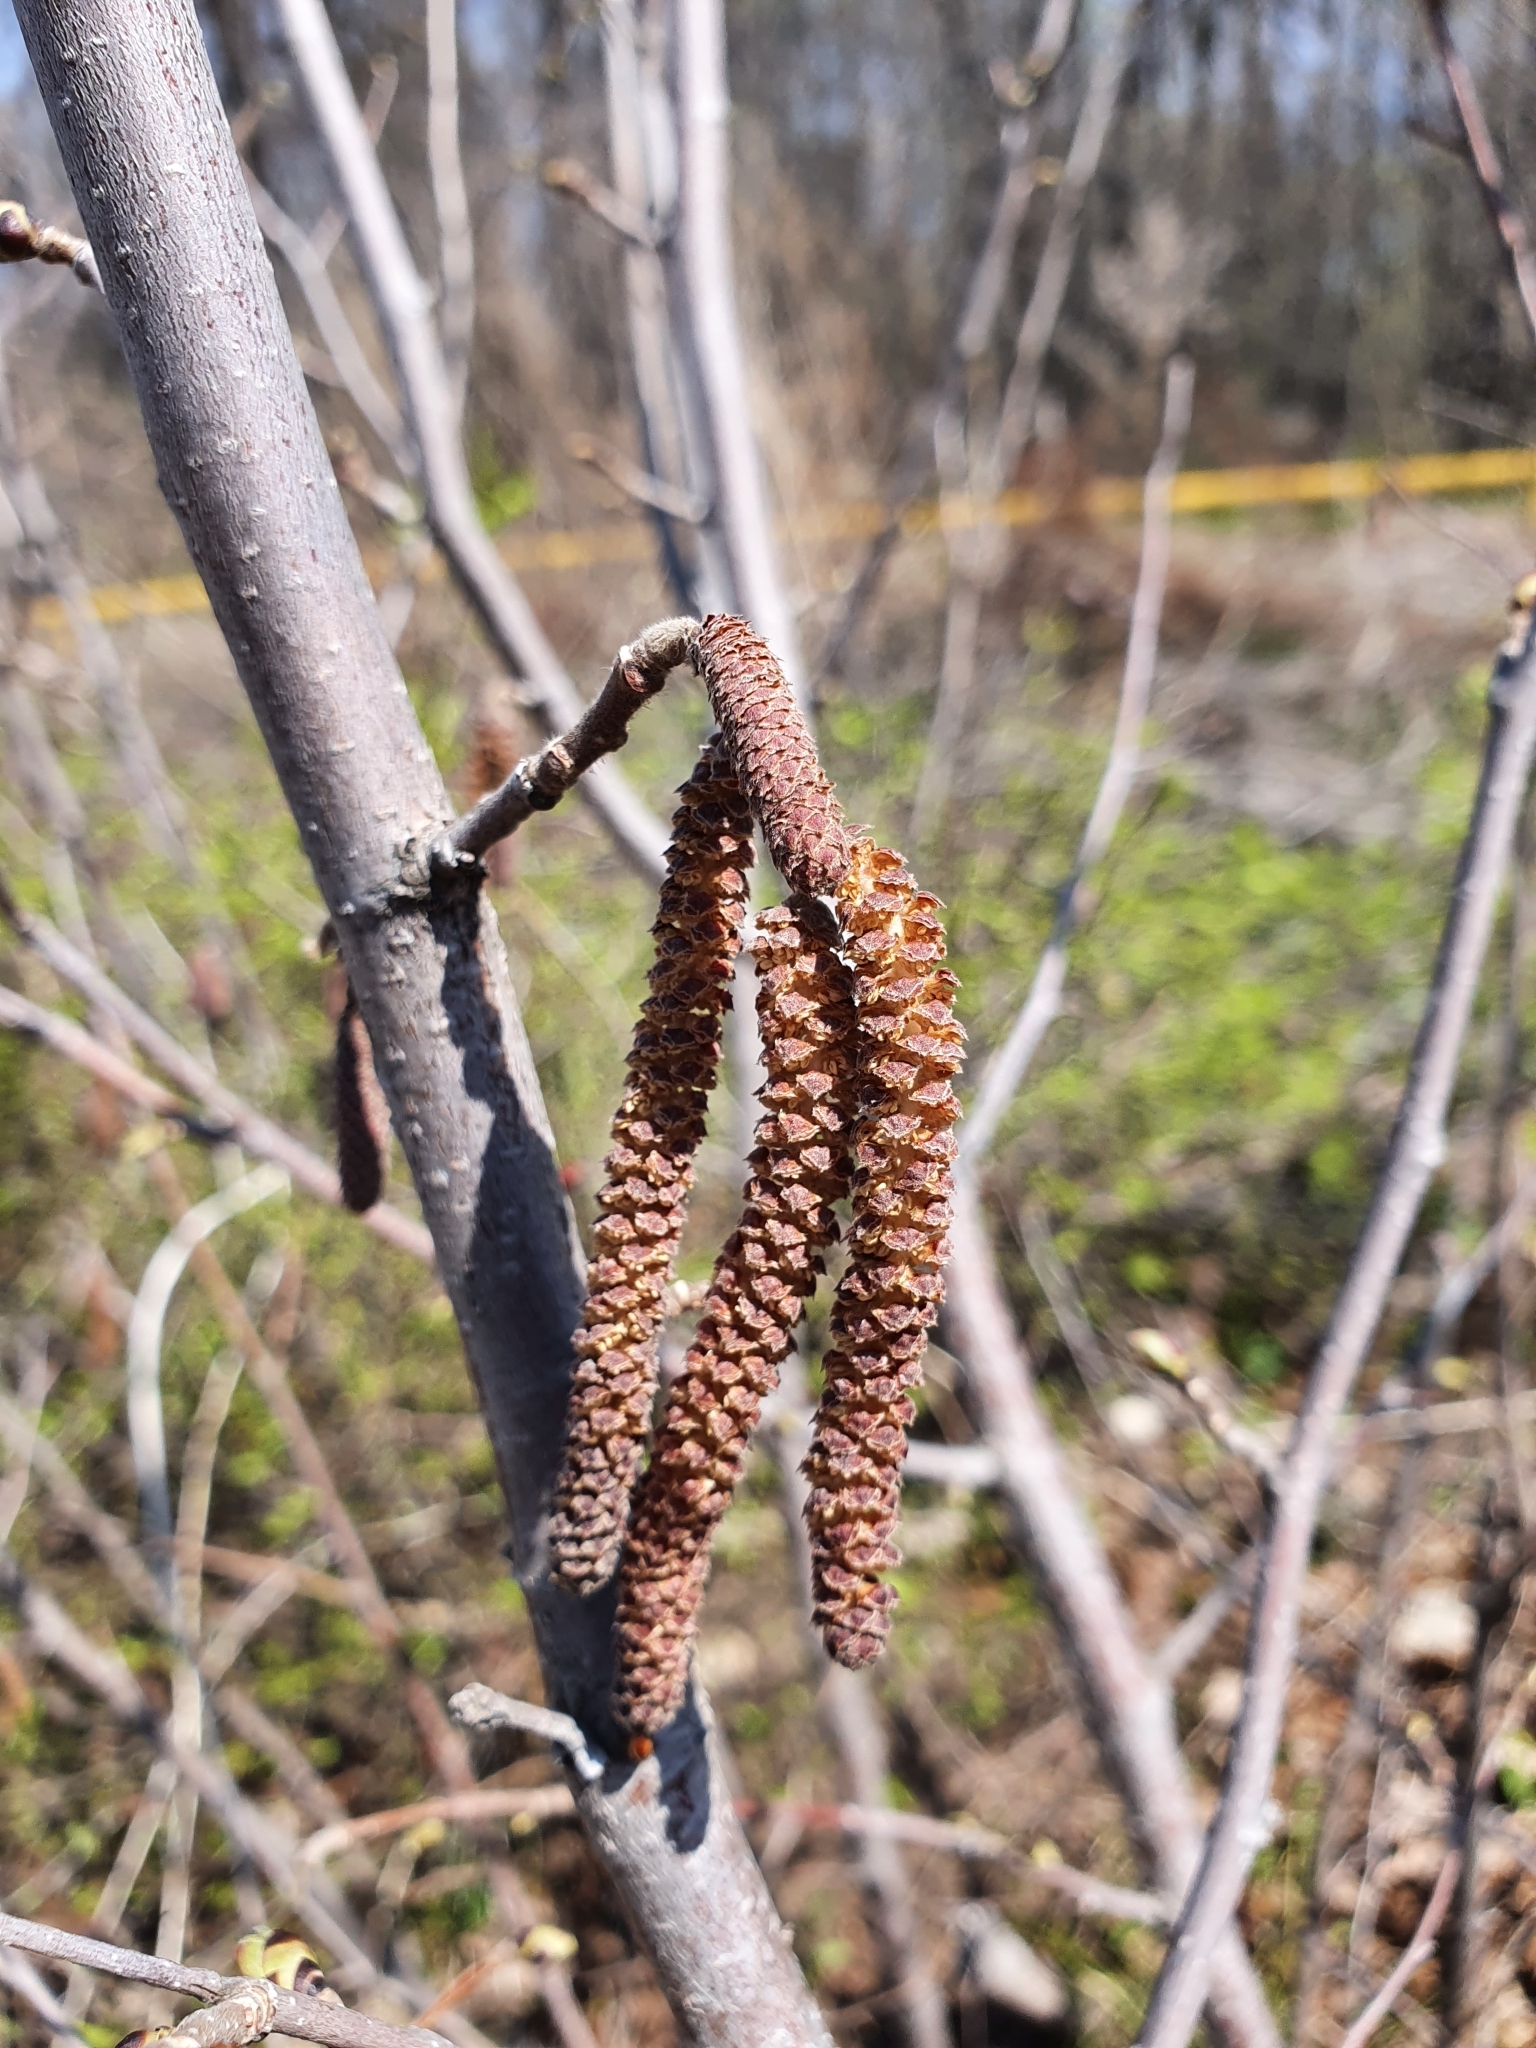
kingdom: Plantae
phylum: Tracheophyta
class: Magnoliopsida
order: Fagales
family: Betulaceae
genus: Corylus
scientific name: Corylus avellana
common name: European hazel
